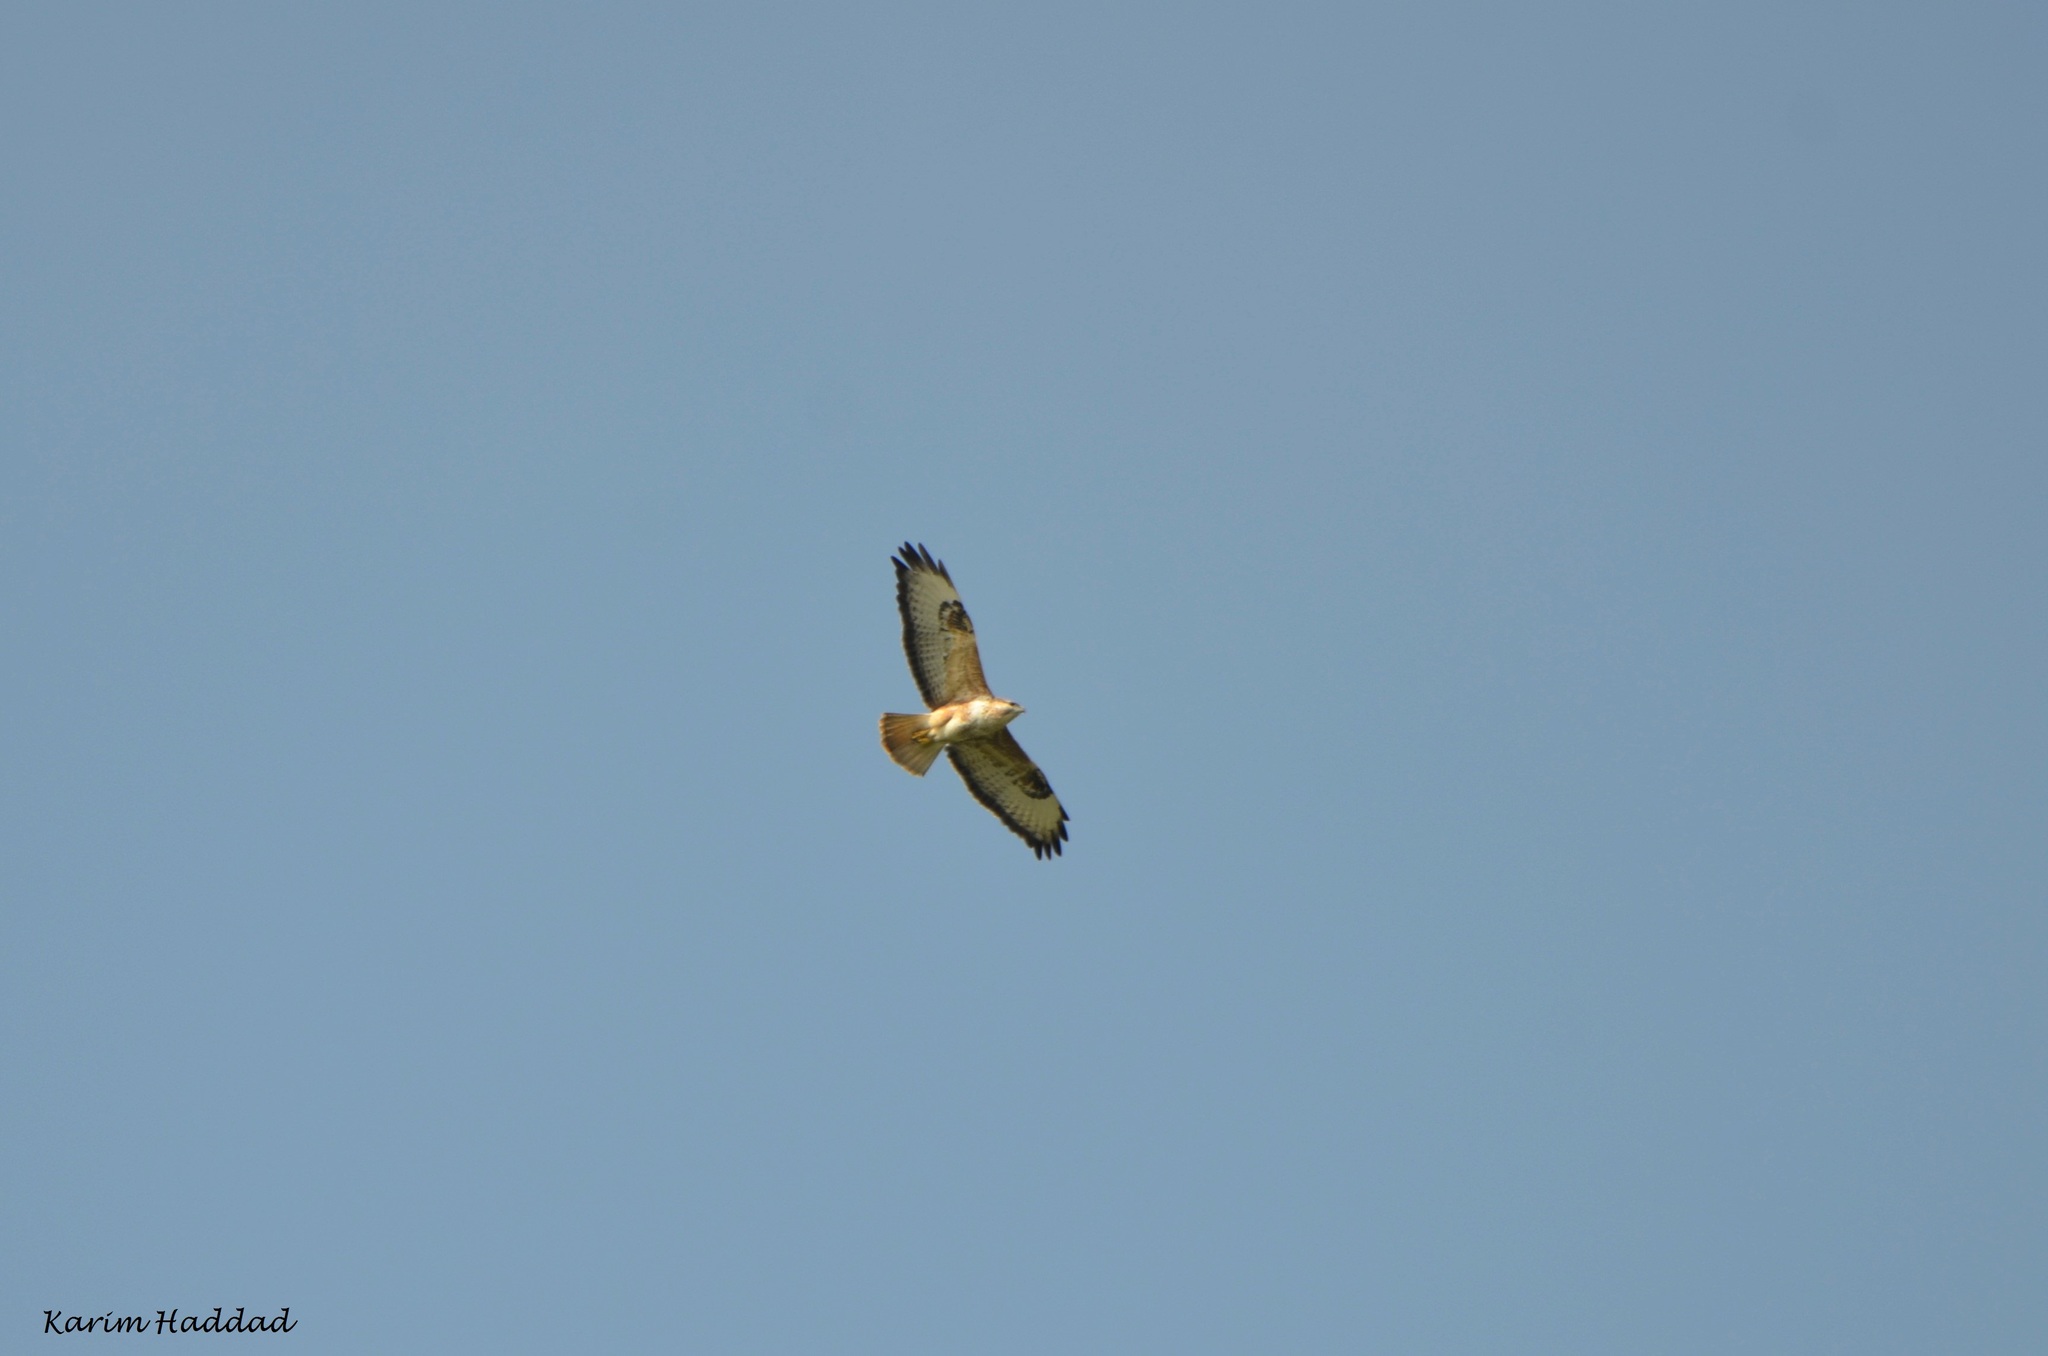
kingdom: Animalia
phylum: Chordata
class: Aves
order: Accipitriformes
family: Accipitridae
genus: Buteo
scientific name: Buteo rufinus
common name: Long-legged buzzard
